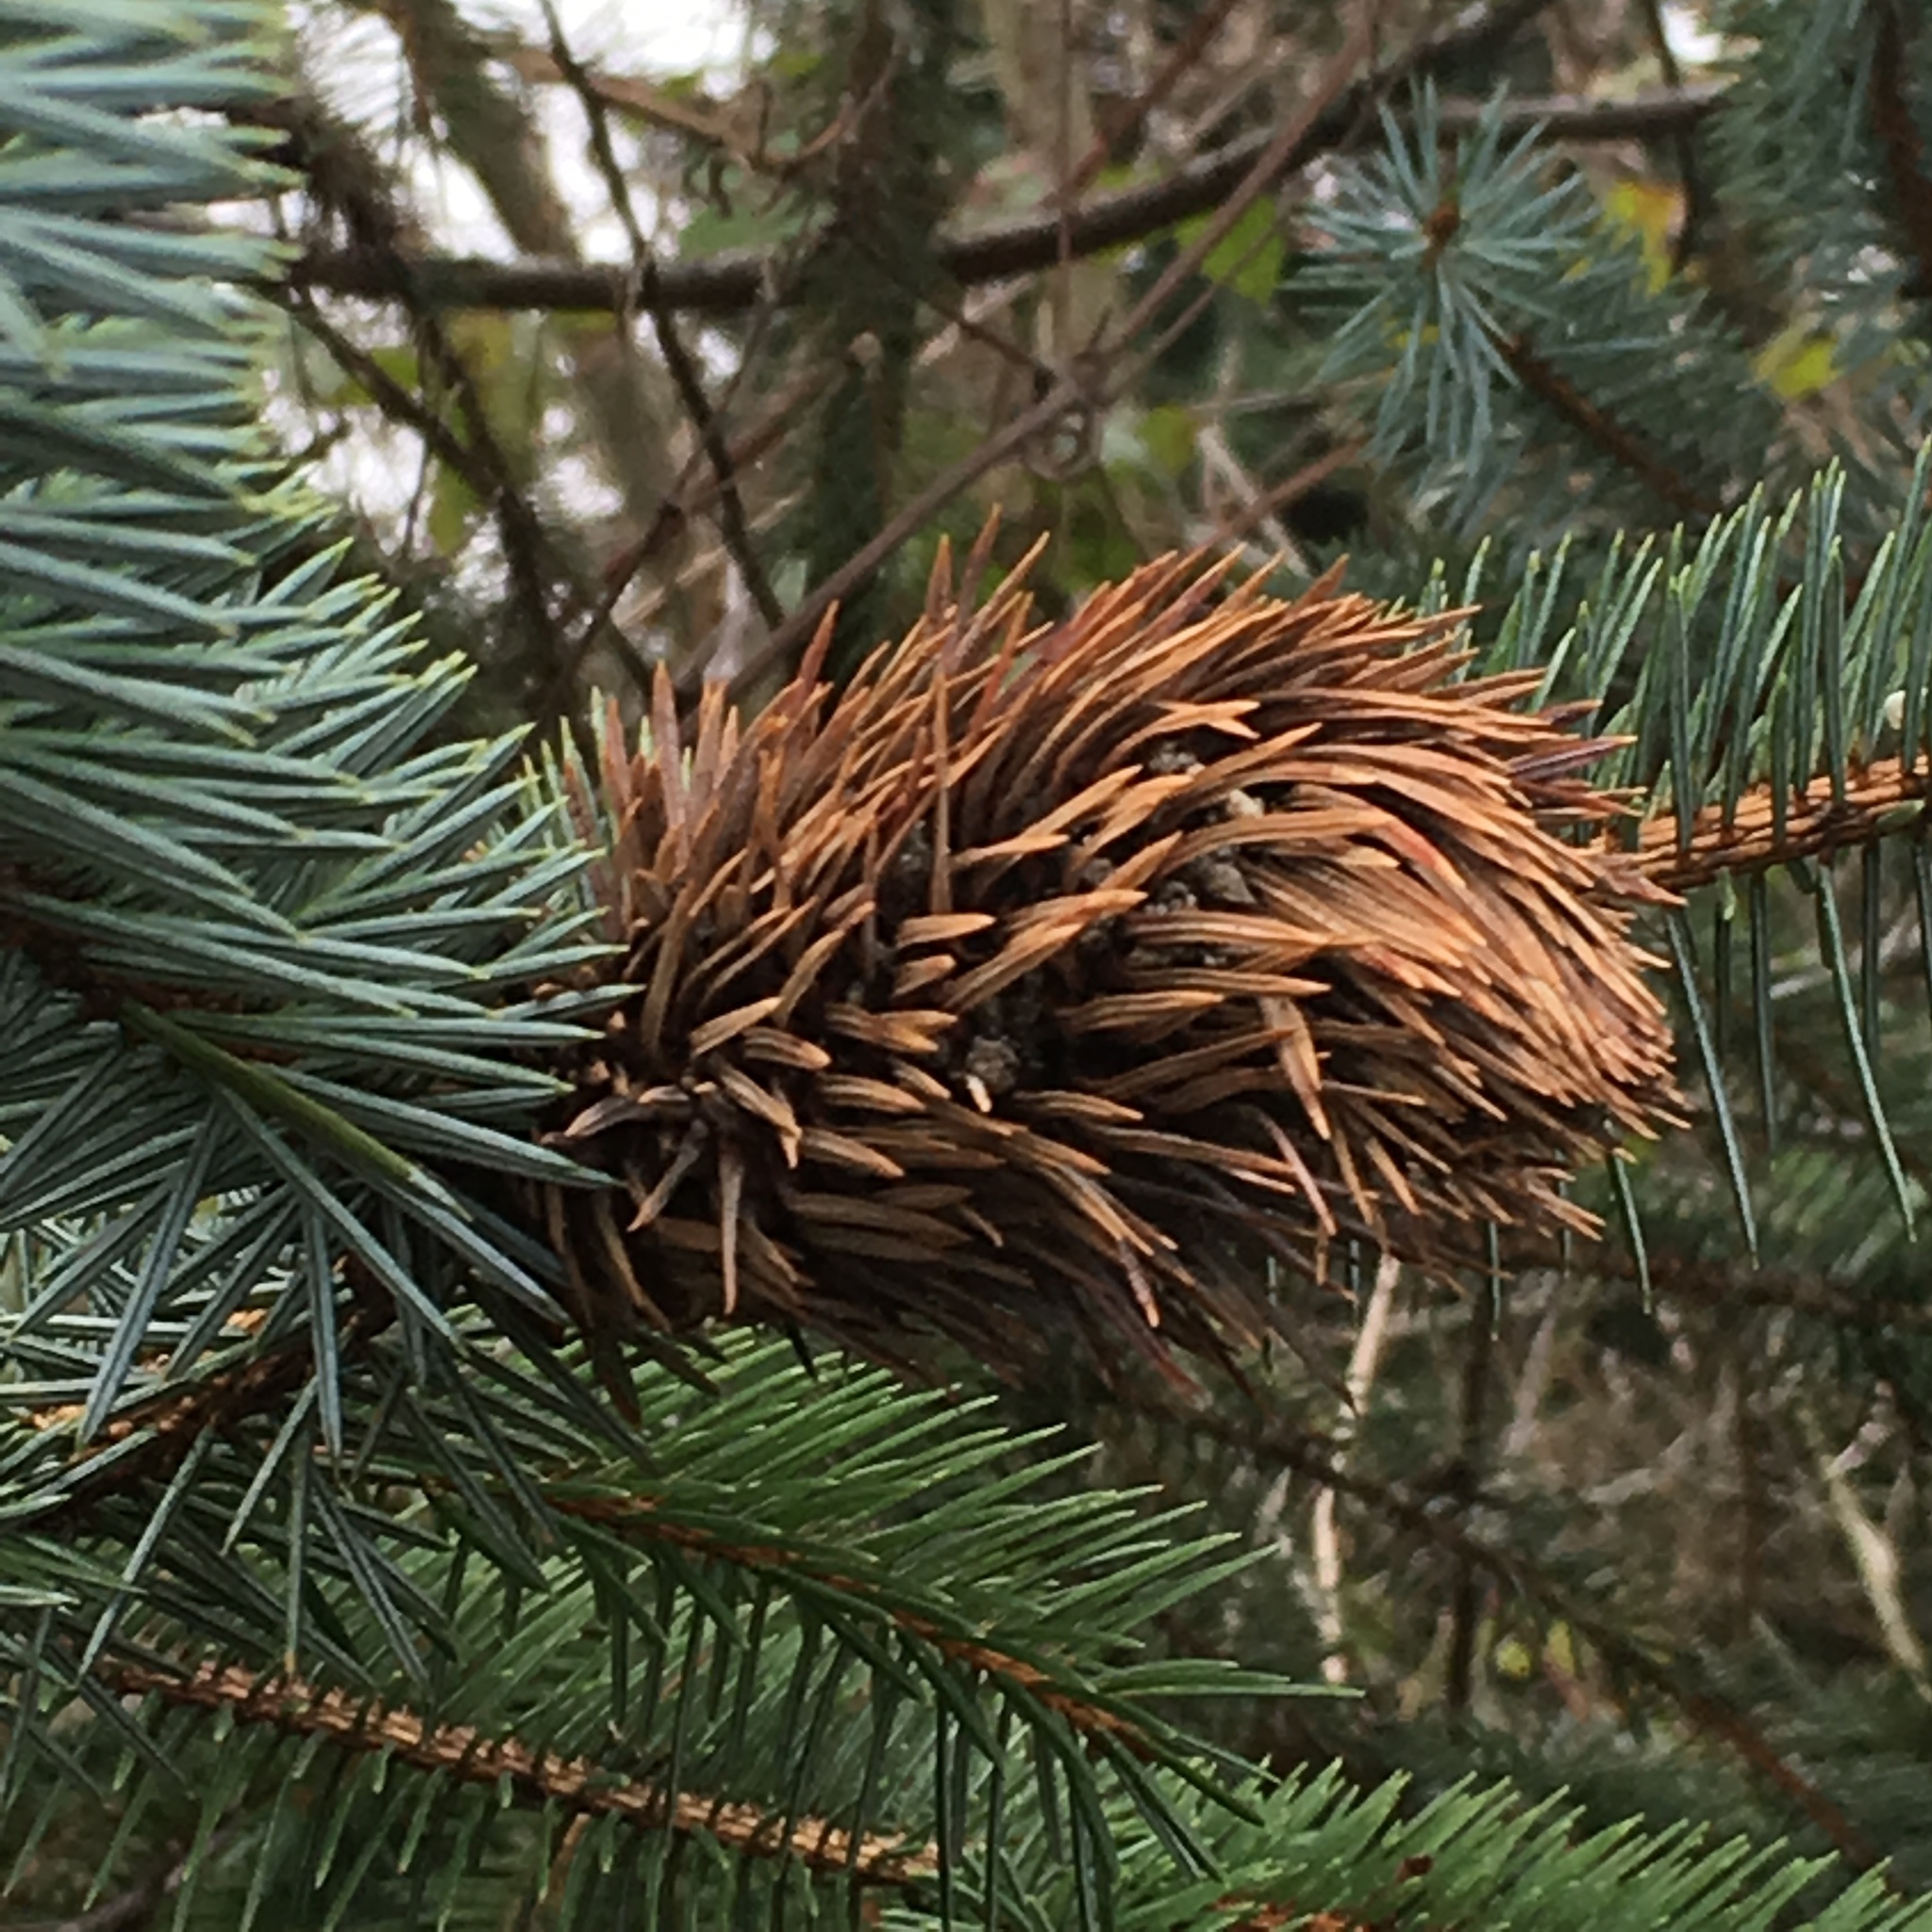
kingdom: Plantae
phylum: Tracheophyta
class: Pinopsida
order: Pinales
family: Pinaceae
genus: Picea
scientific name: Picea sitchensis
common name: Sitka spruce
